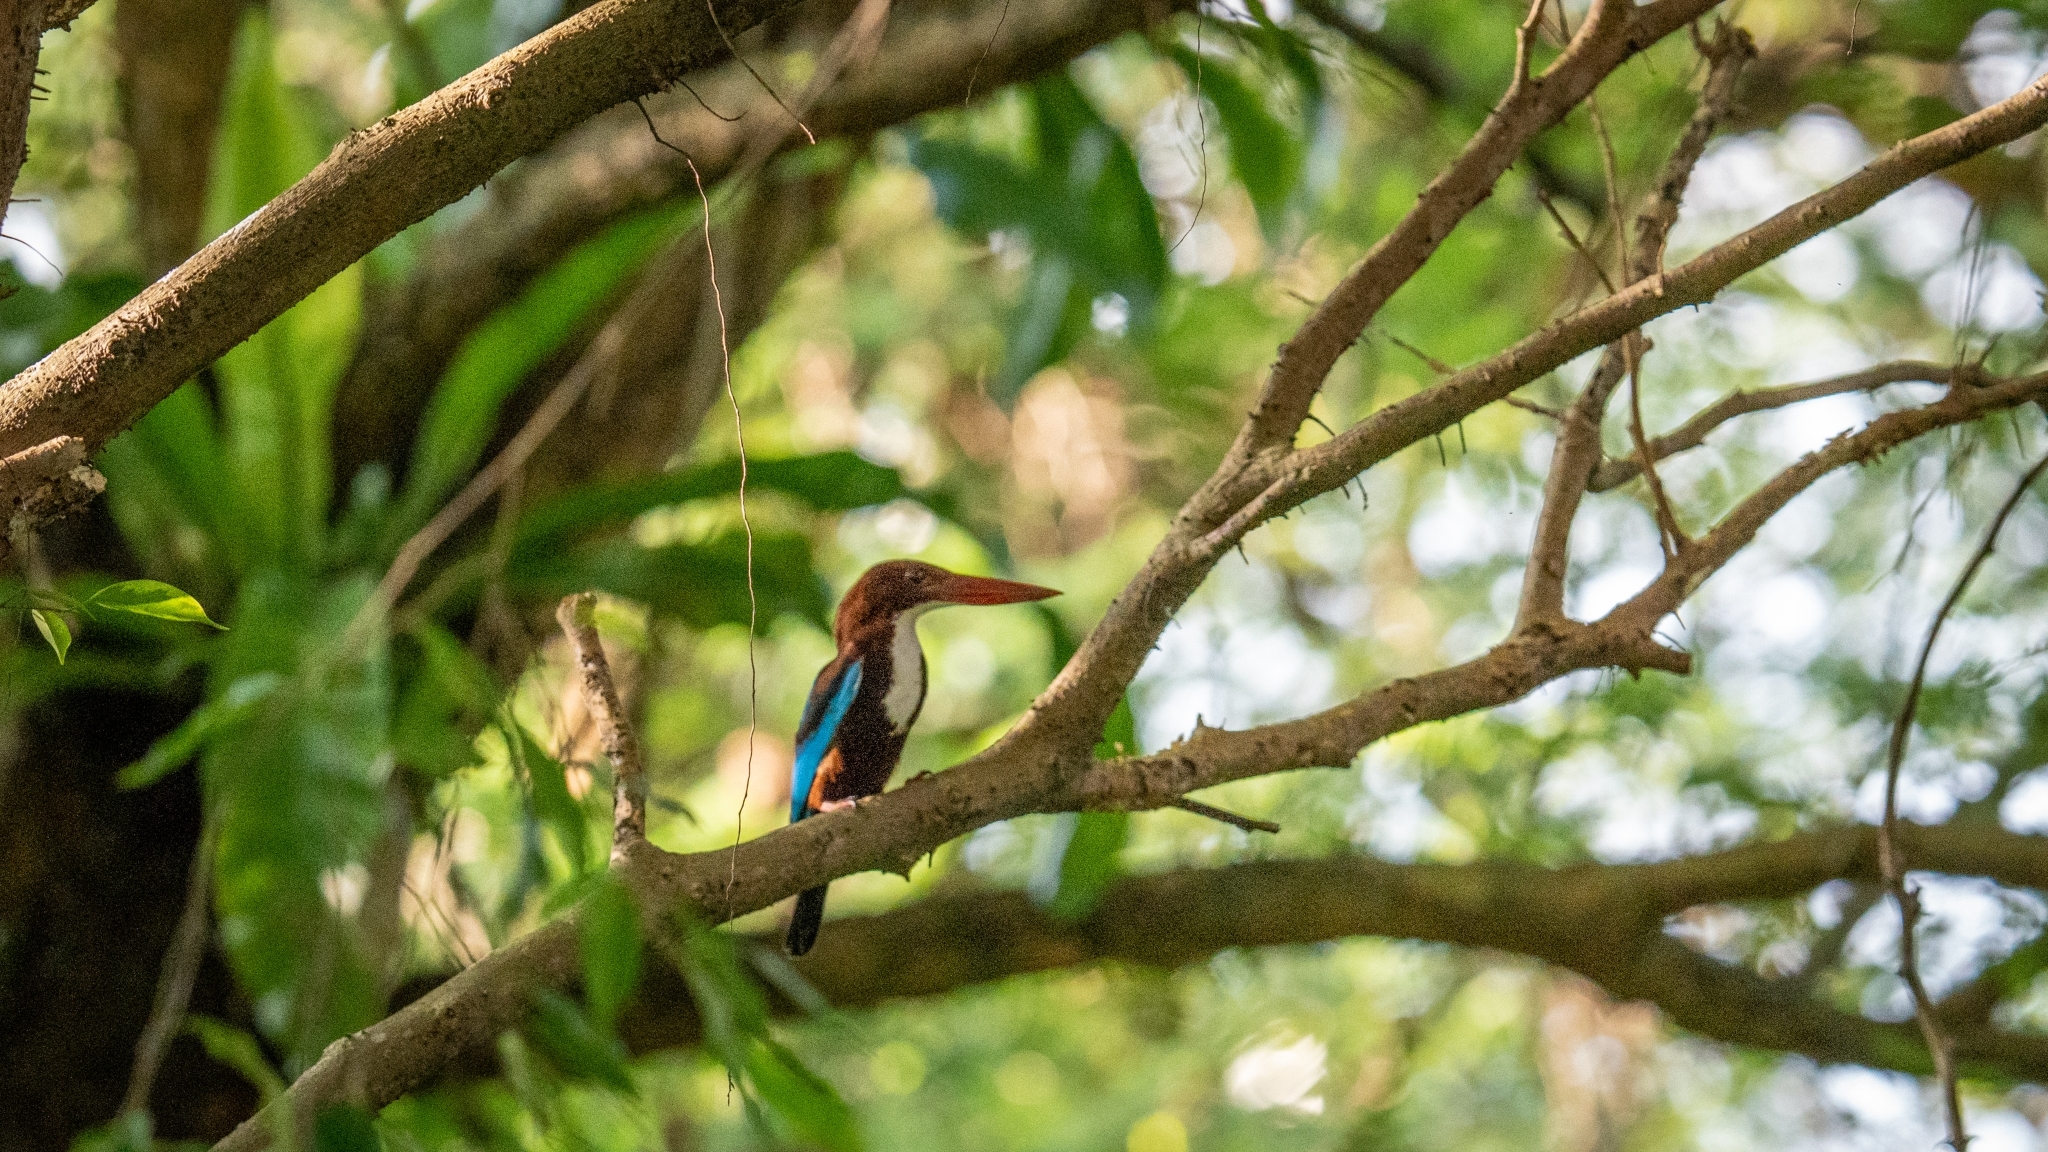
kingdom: Animalia
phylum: Chordata
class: Aves
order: Coraciiformes
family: Alcedinidae
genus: Halcyon
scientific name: Halcyon smyrnensis
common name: White-throated kingfisher
